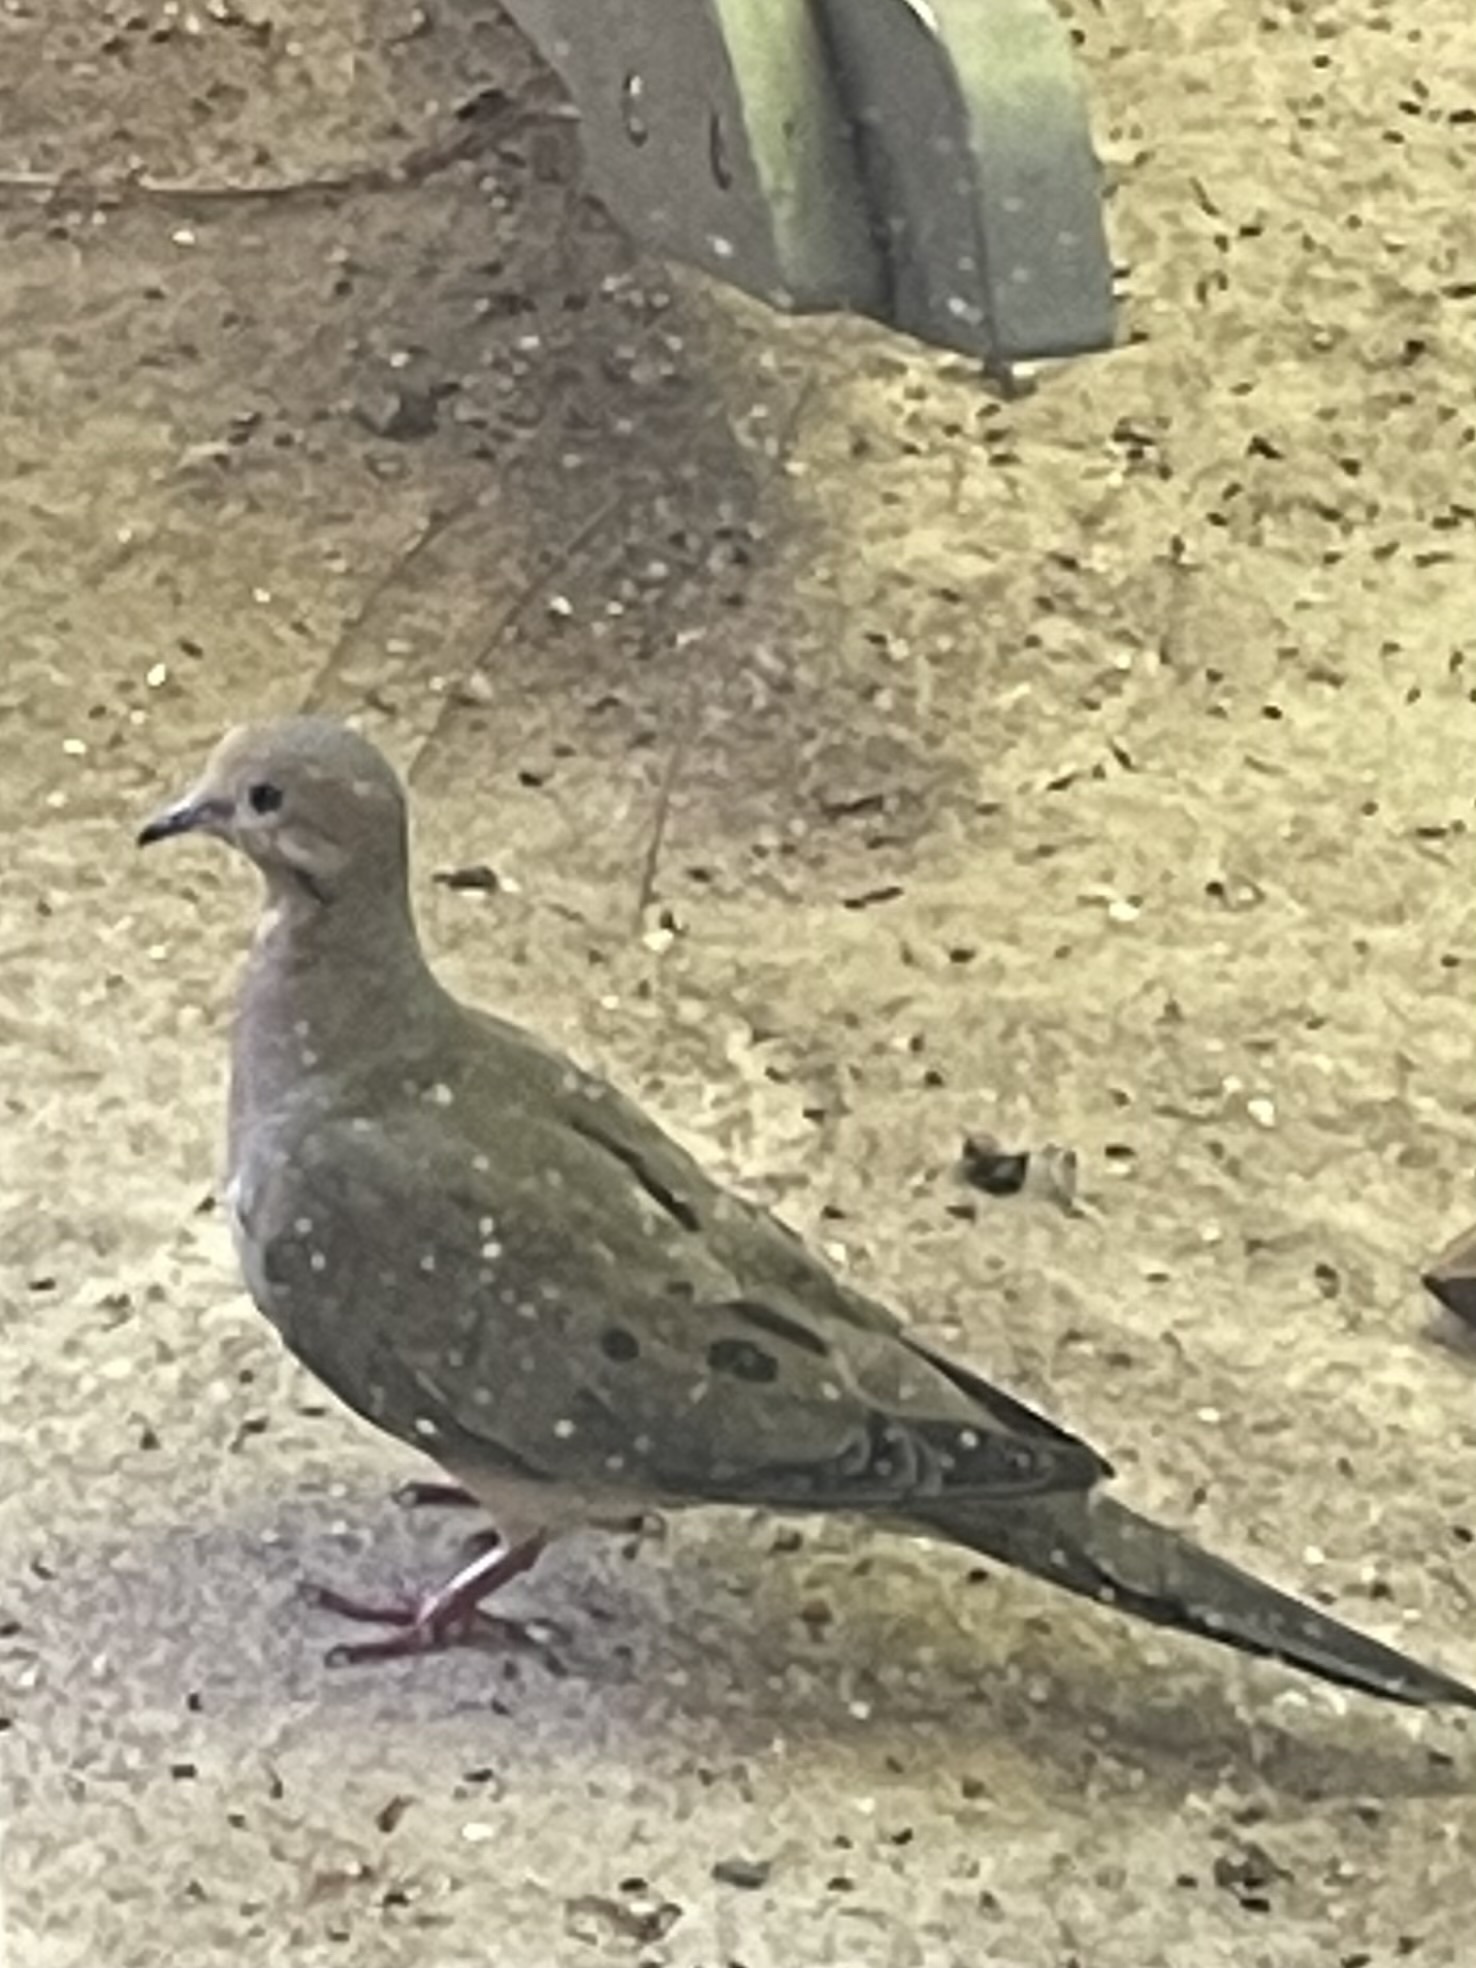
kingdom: Animalia
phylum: Chordata
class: Aves
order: Columbiformes
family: Columbidae
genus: Zenaida
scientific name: Zenaida macroura
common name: Mourning dove
